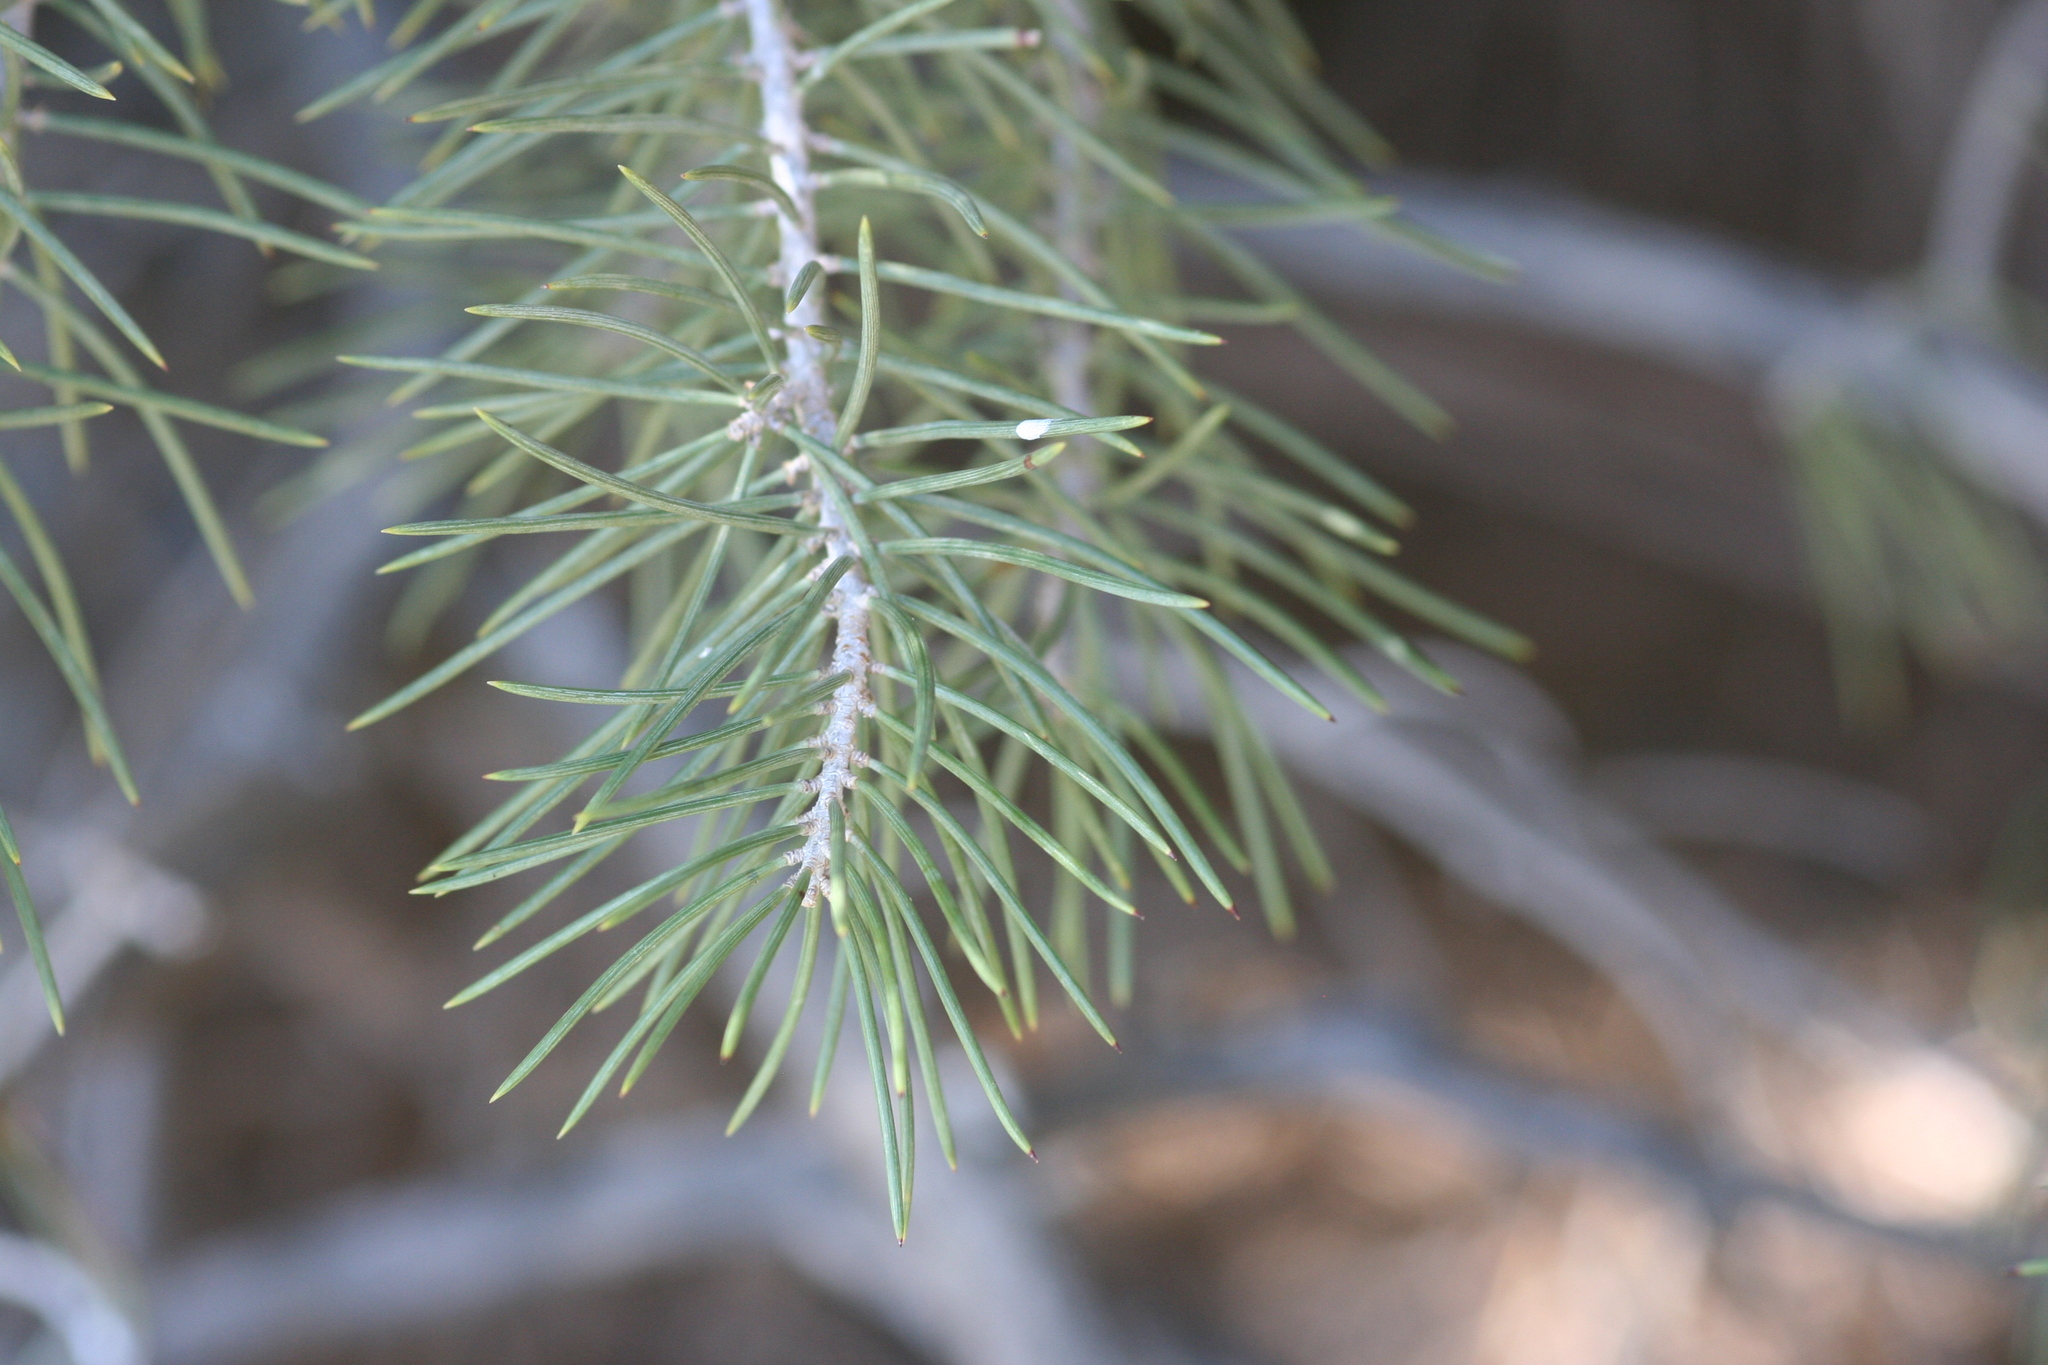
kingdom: Plantae
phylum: Tracheophyta
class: Pinopsida
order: Pinales
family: Pinaceae
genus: Pinus
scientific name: Pinus monophylla
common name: One-leaved nut pine
